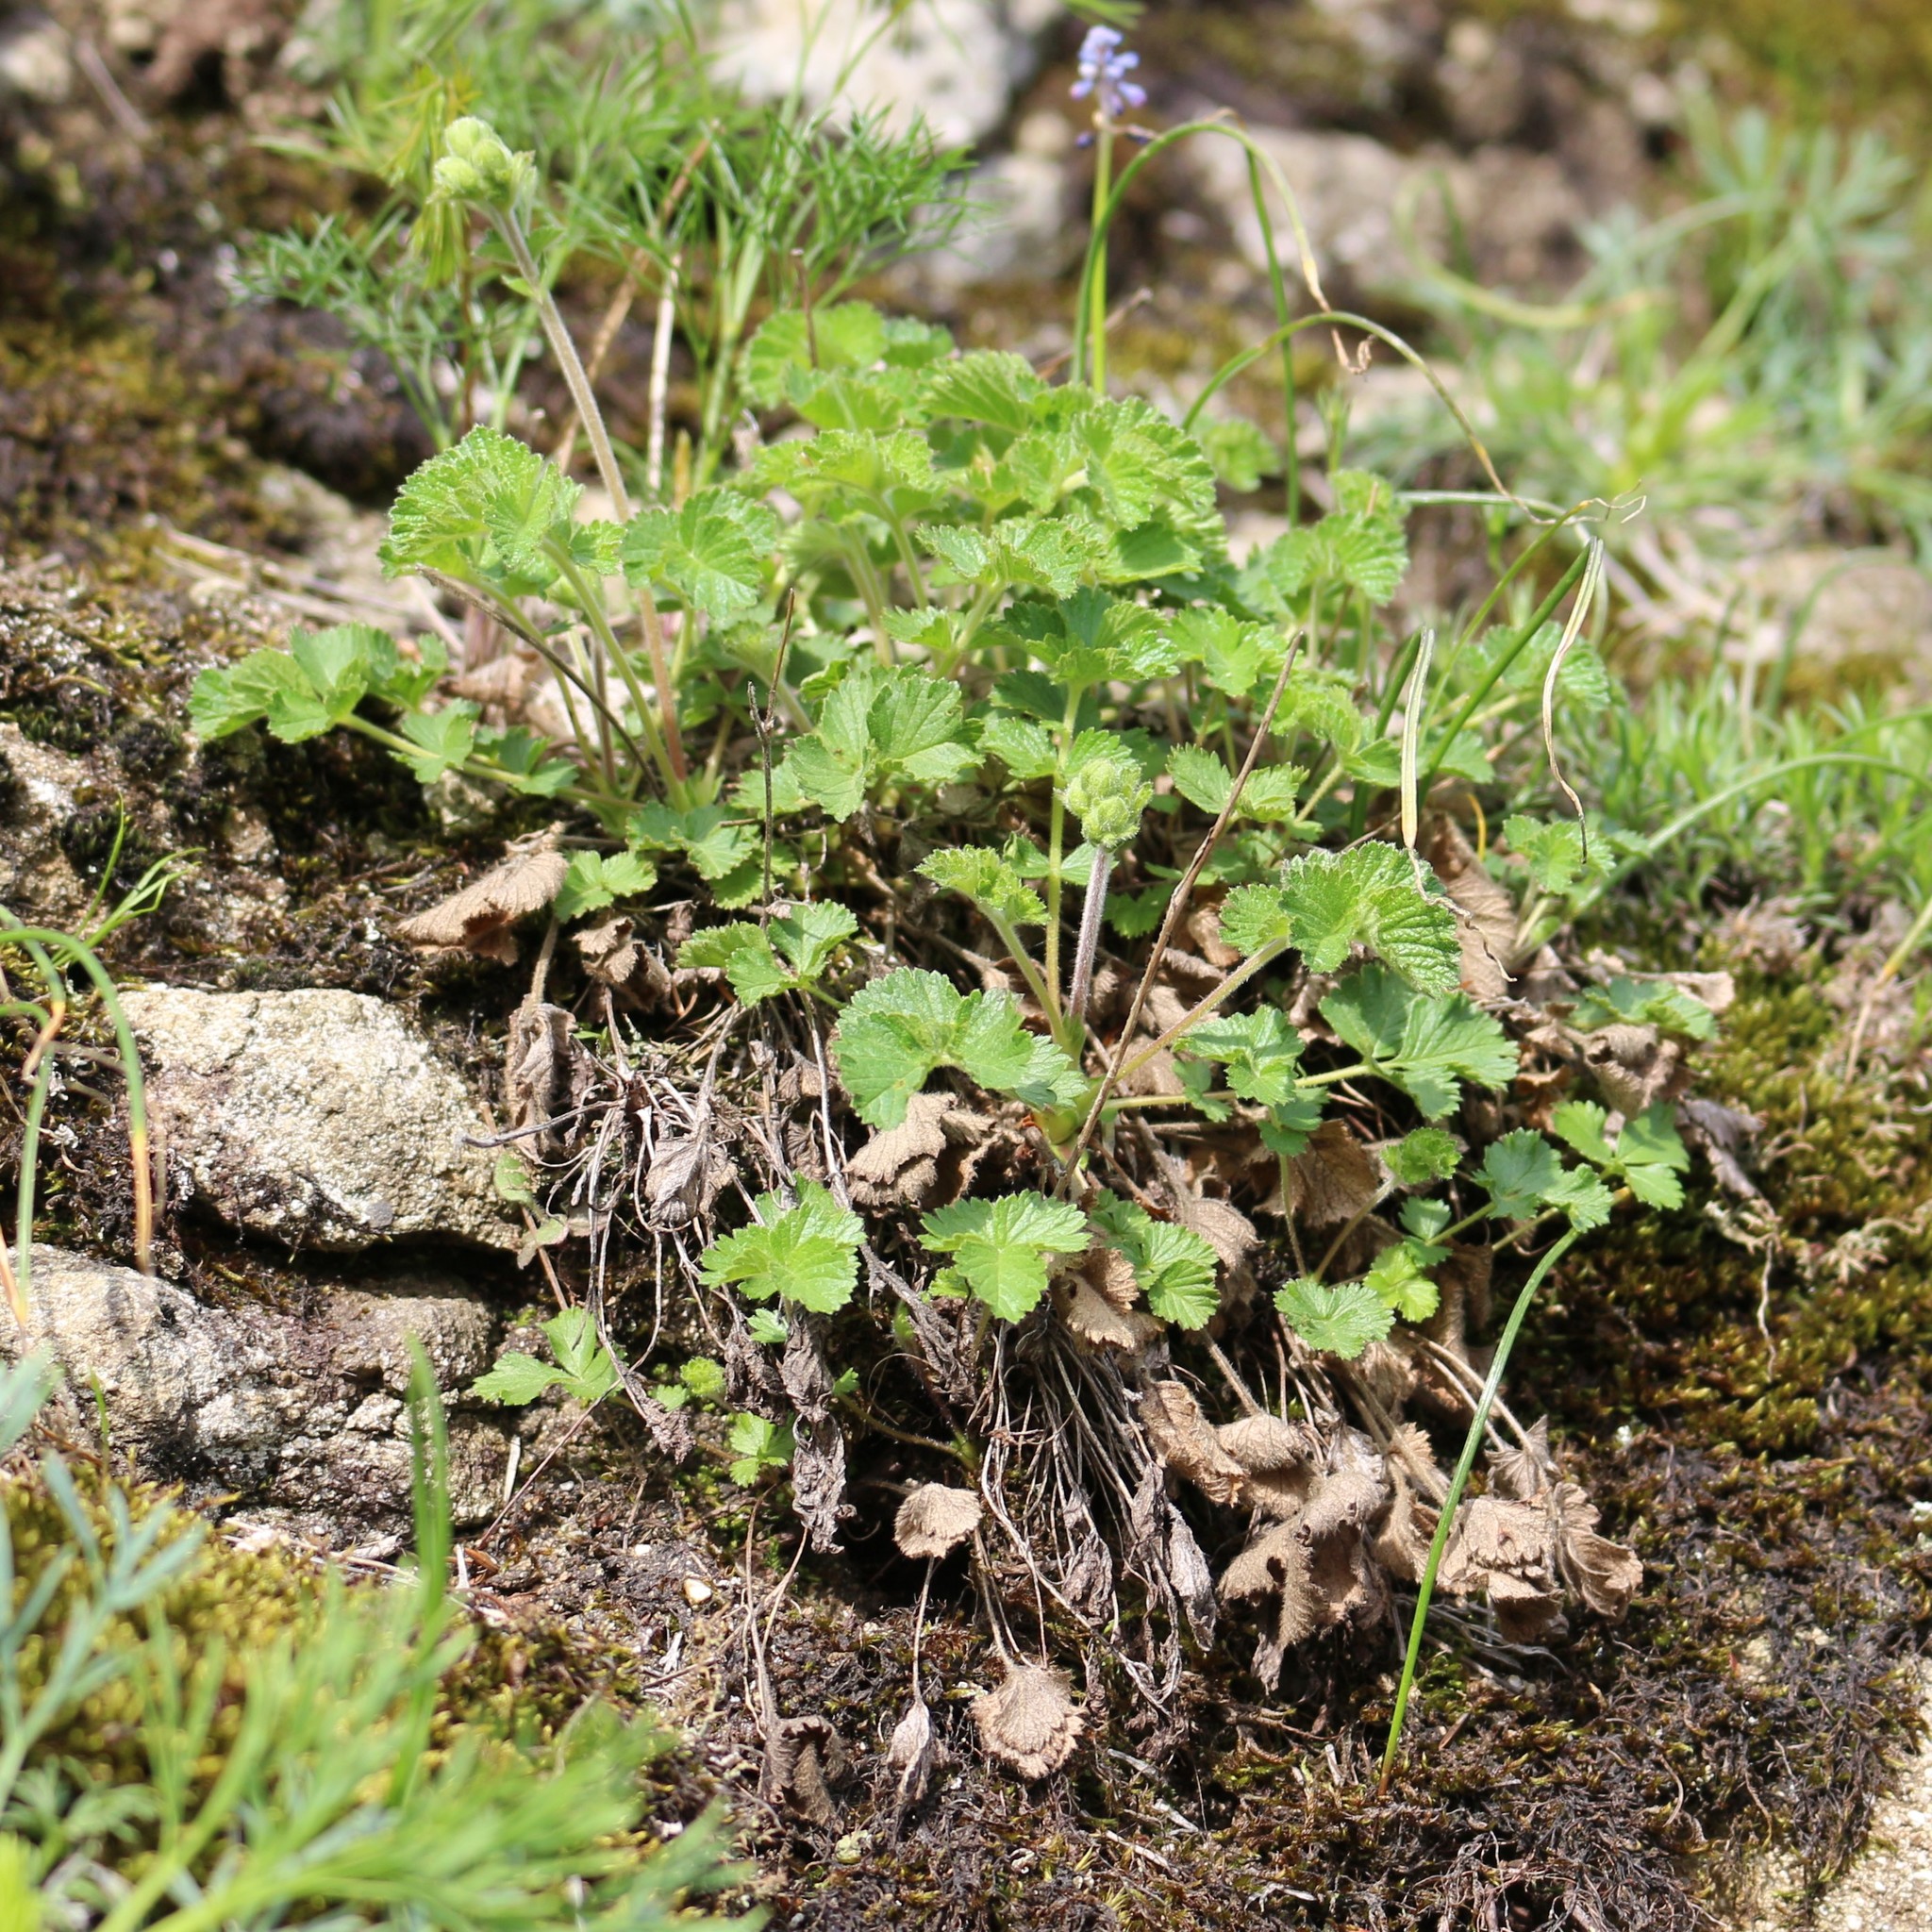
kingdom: Plantae
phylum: Tracheophyta
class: Magnoliopsida
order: Rosales
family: Rosaceae
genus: Drymocallis
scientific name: Drymocallis rupestris
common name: Rock cinquefoil
